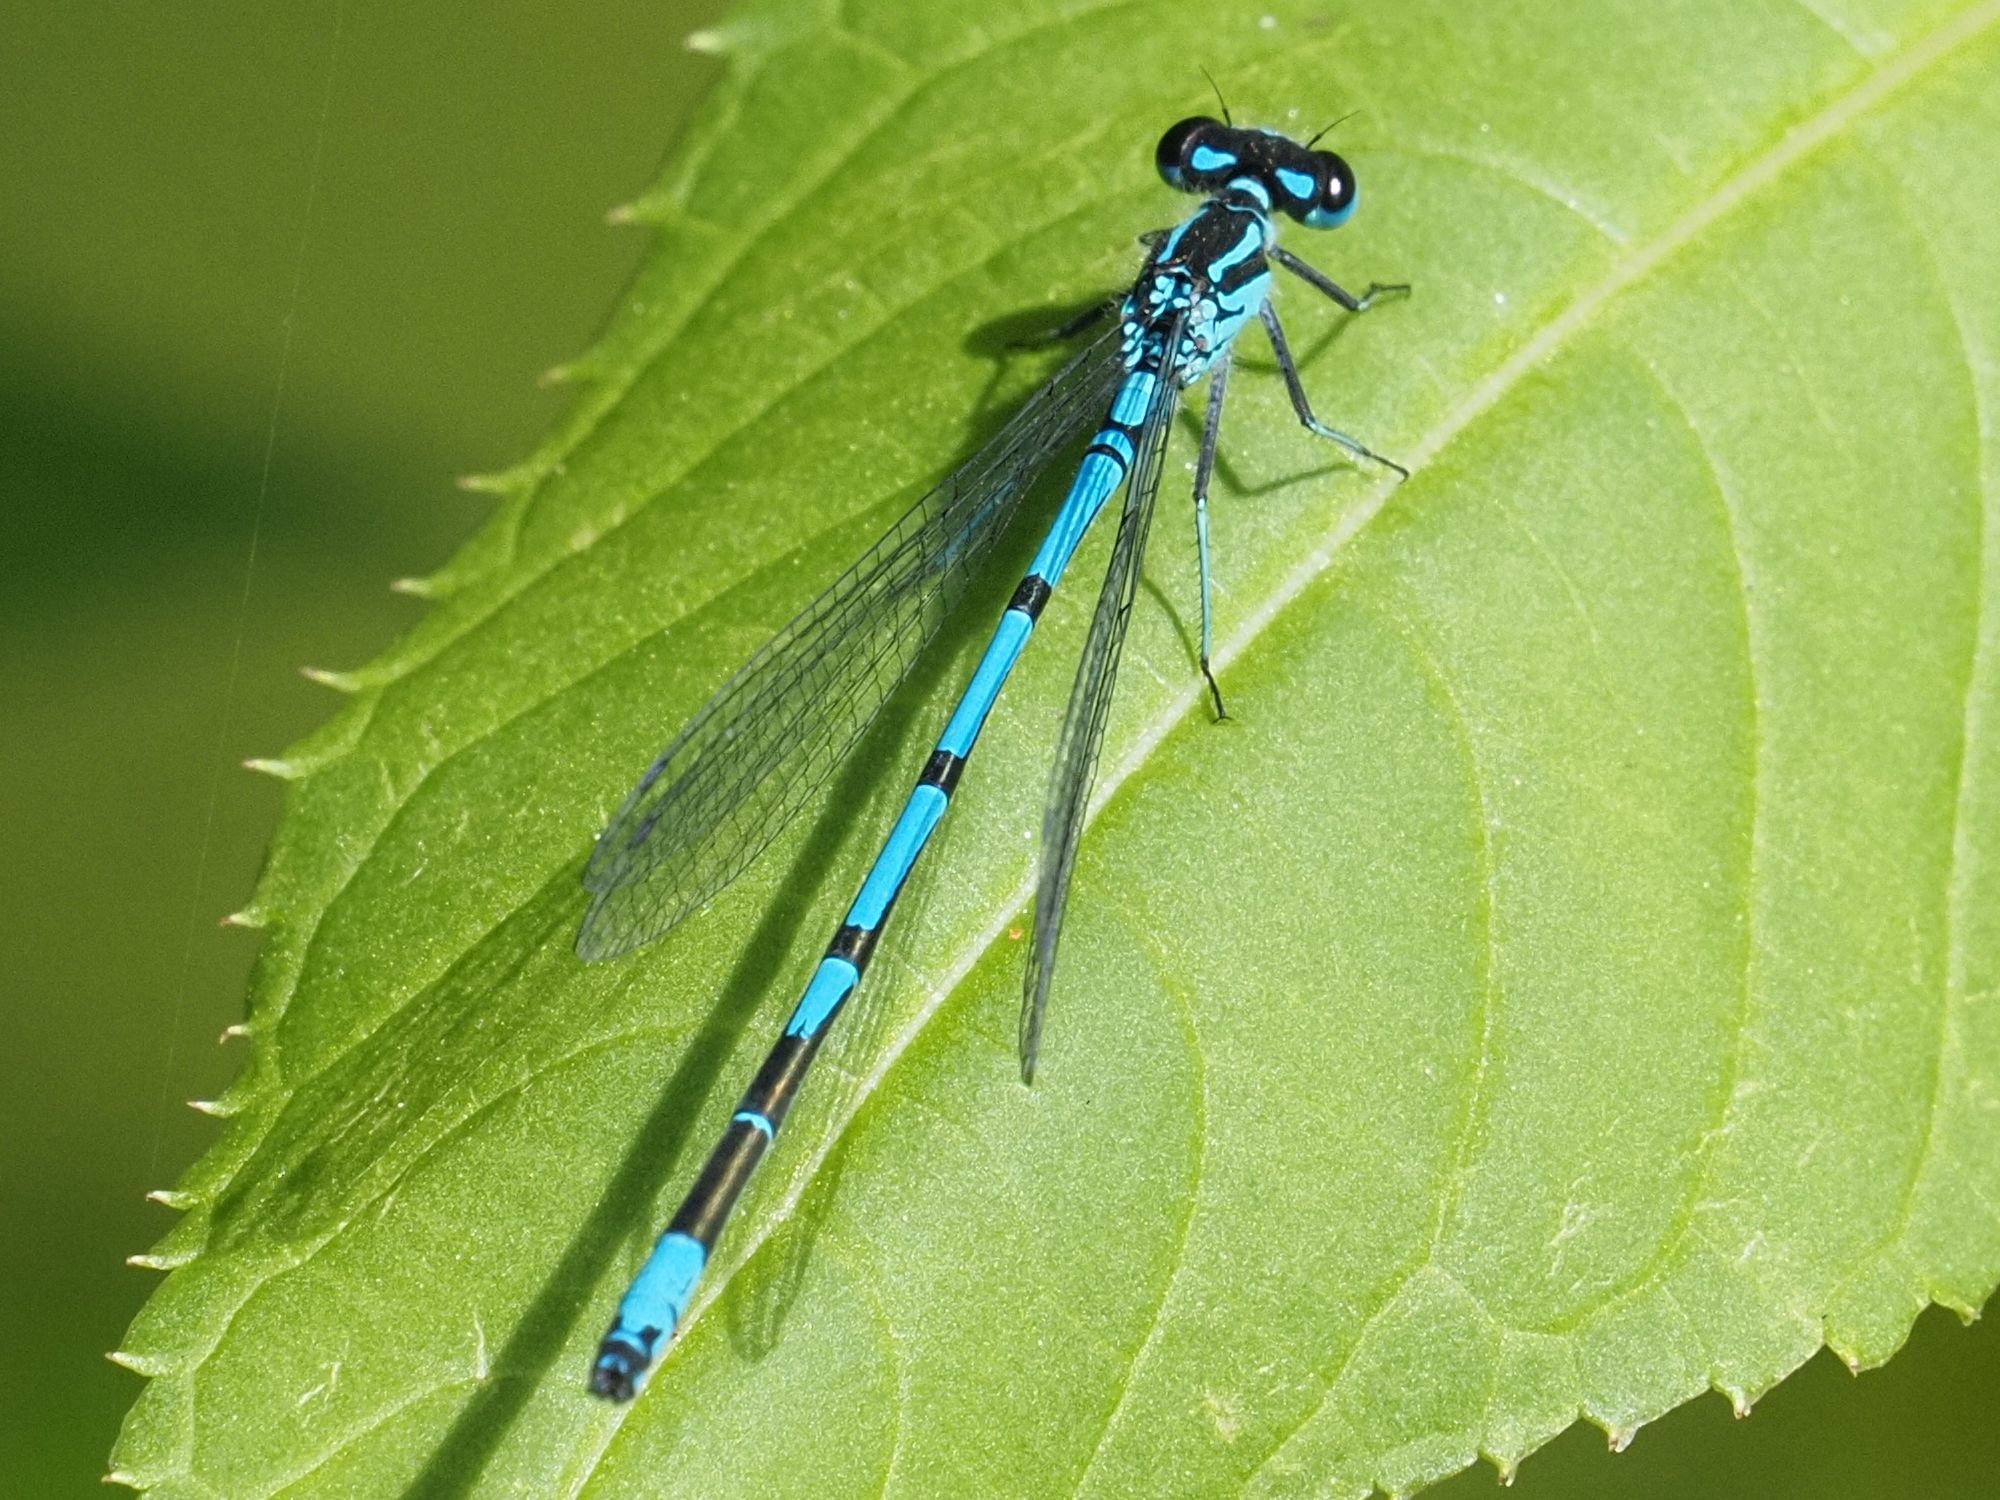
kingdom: Animalia
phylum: Arthropoda
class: Insecta
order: Odonata
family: Coenagrionidae
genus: Coenagrion
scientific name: Coenagrion puella
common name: Azure damselfly
